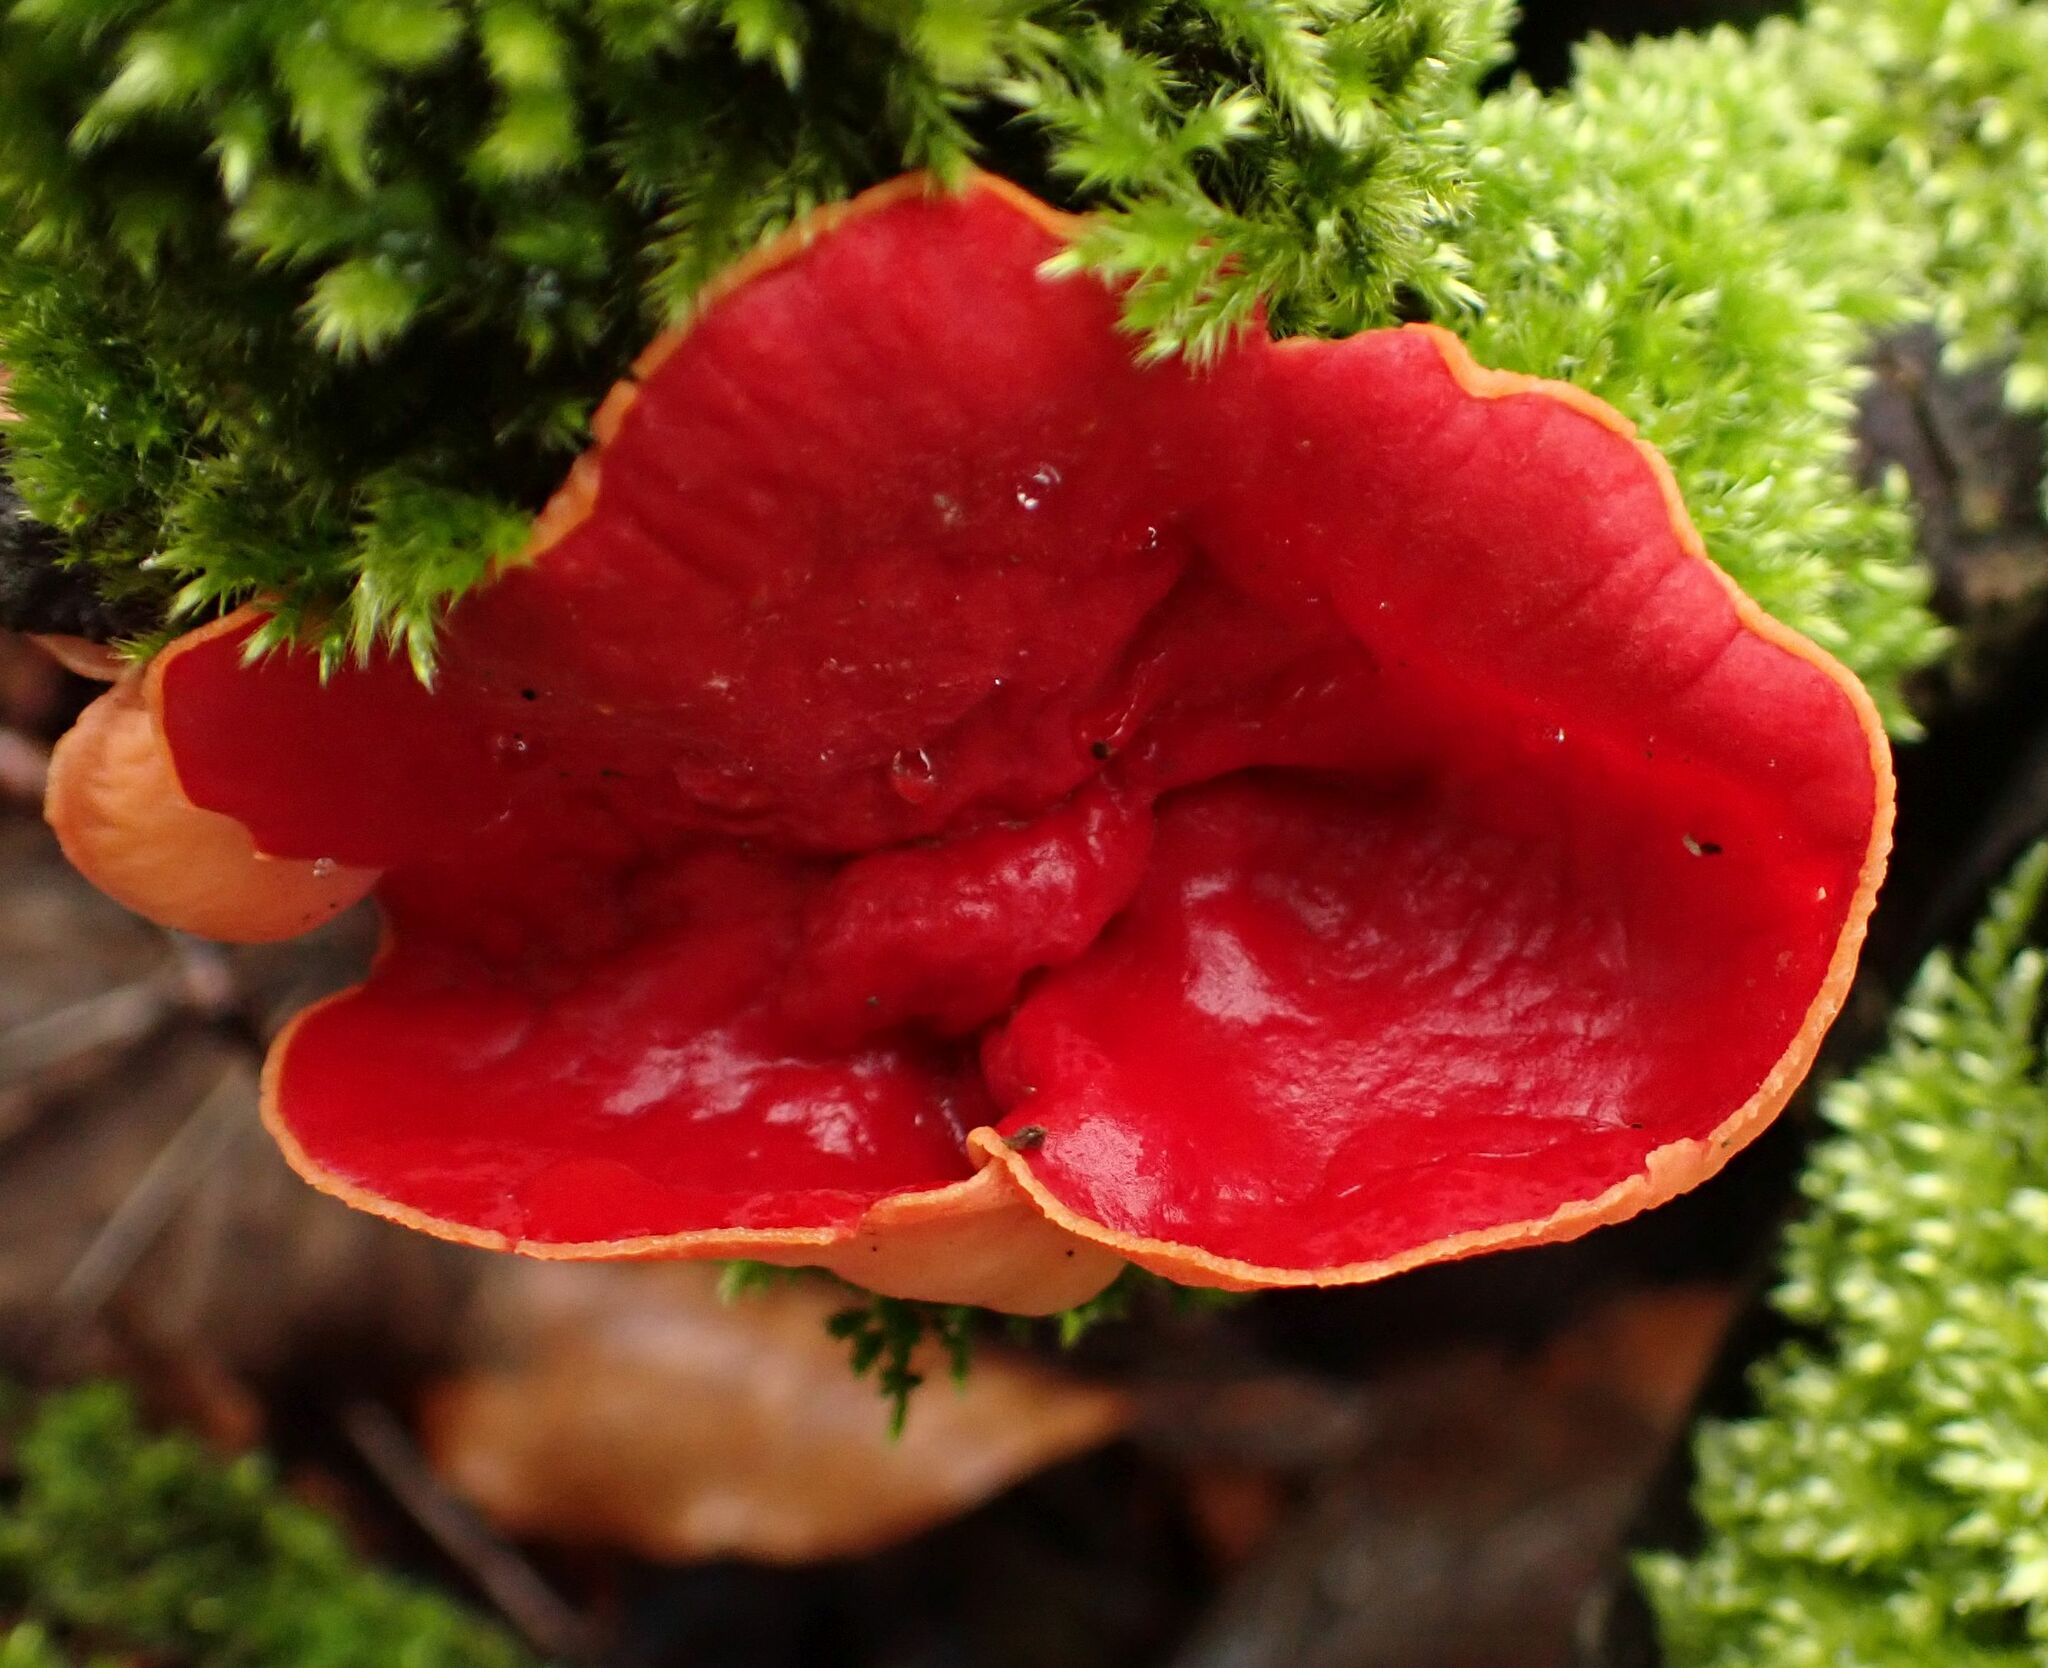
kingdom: Fungi
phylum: Ascomycota
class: Pezizomycetes
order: Pezizales
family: Sarcoscyphaceae
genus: Sarcoscypha
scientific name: Sarcoscypha
